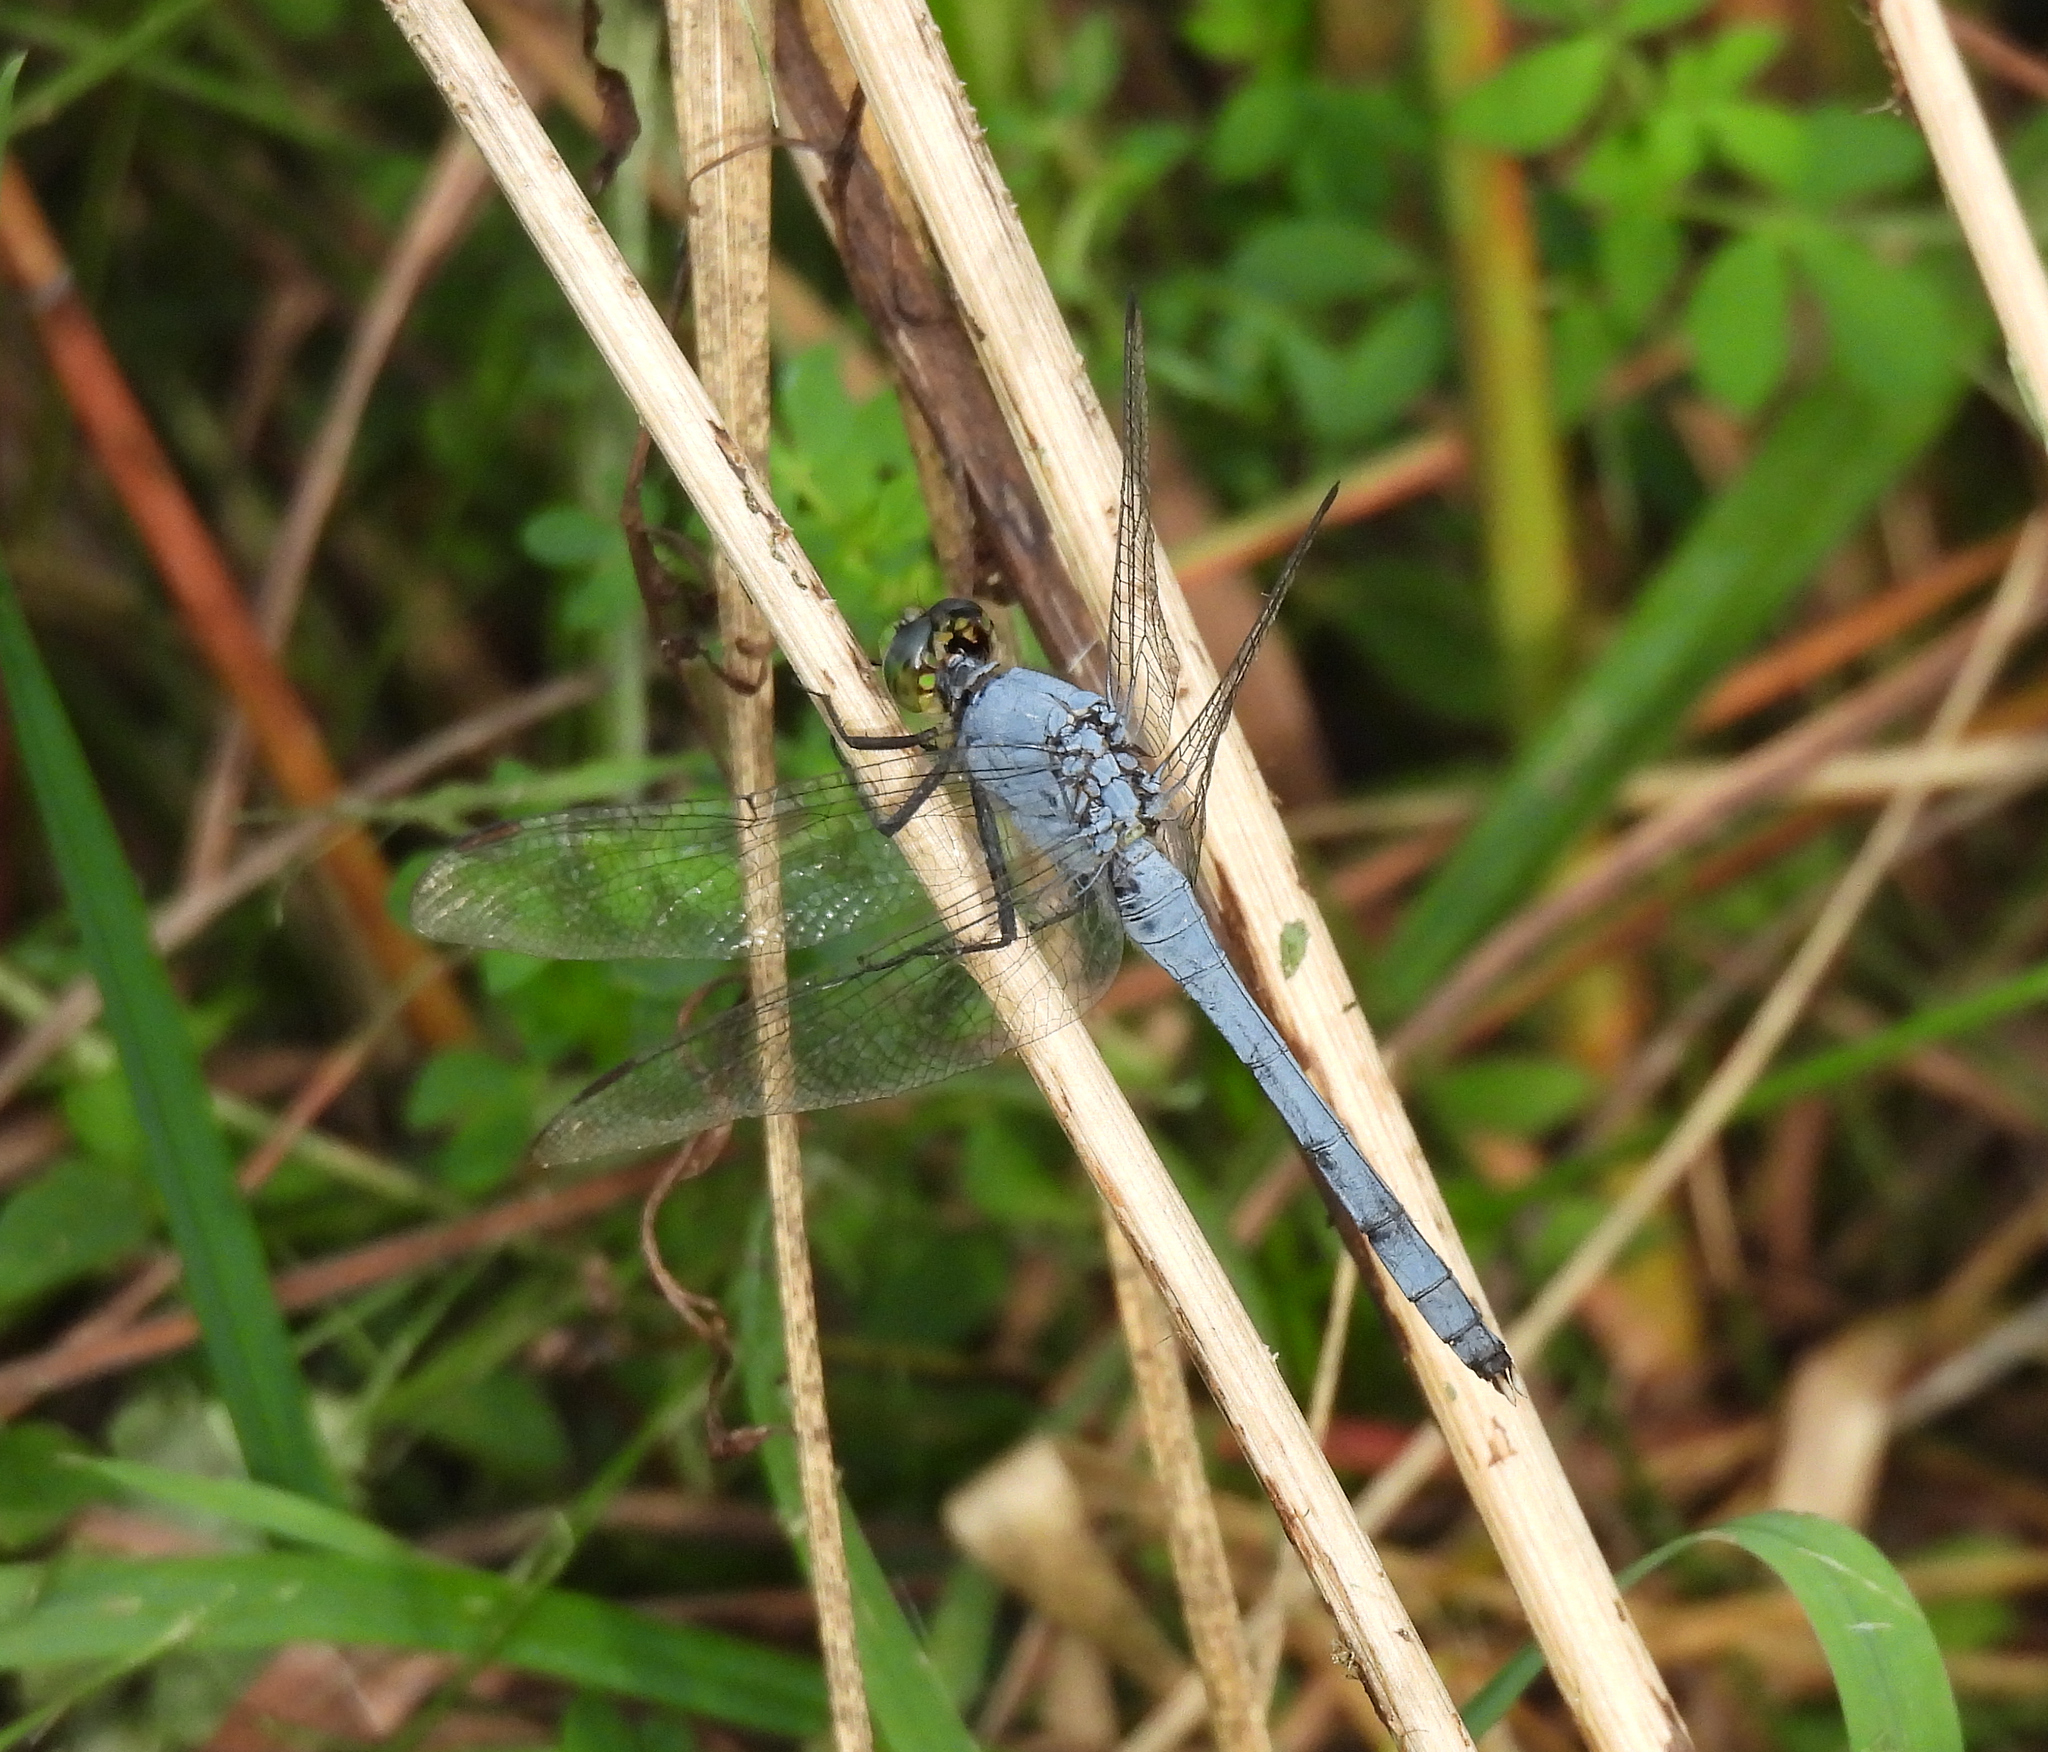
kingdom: Animalia
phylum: Arthropoda
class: Insecta
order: Odonata
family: Libellulidae
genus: Erythemis
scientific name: Erythemis simplicicollis
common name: Eastern pondhawk
